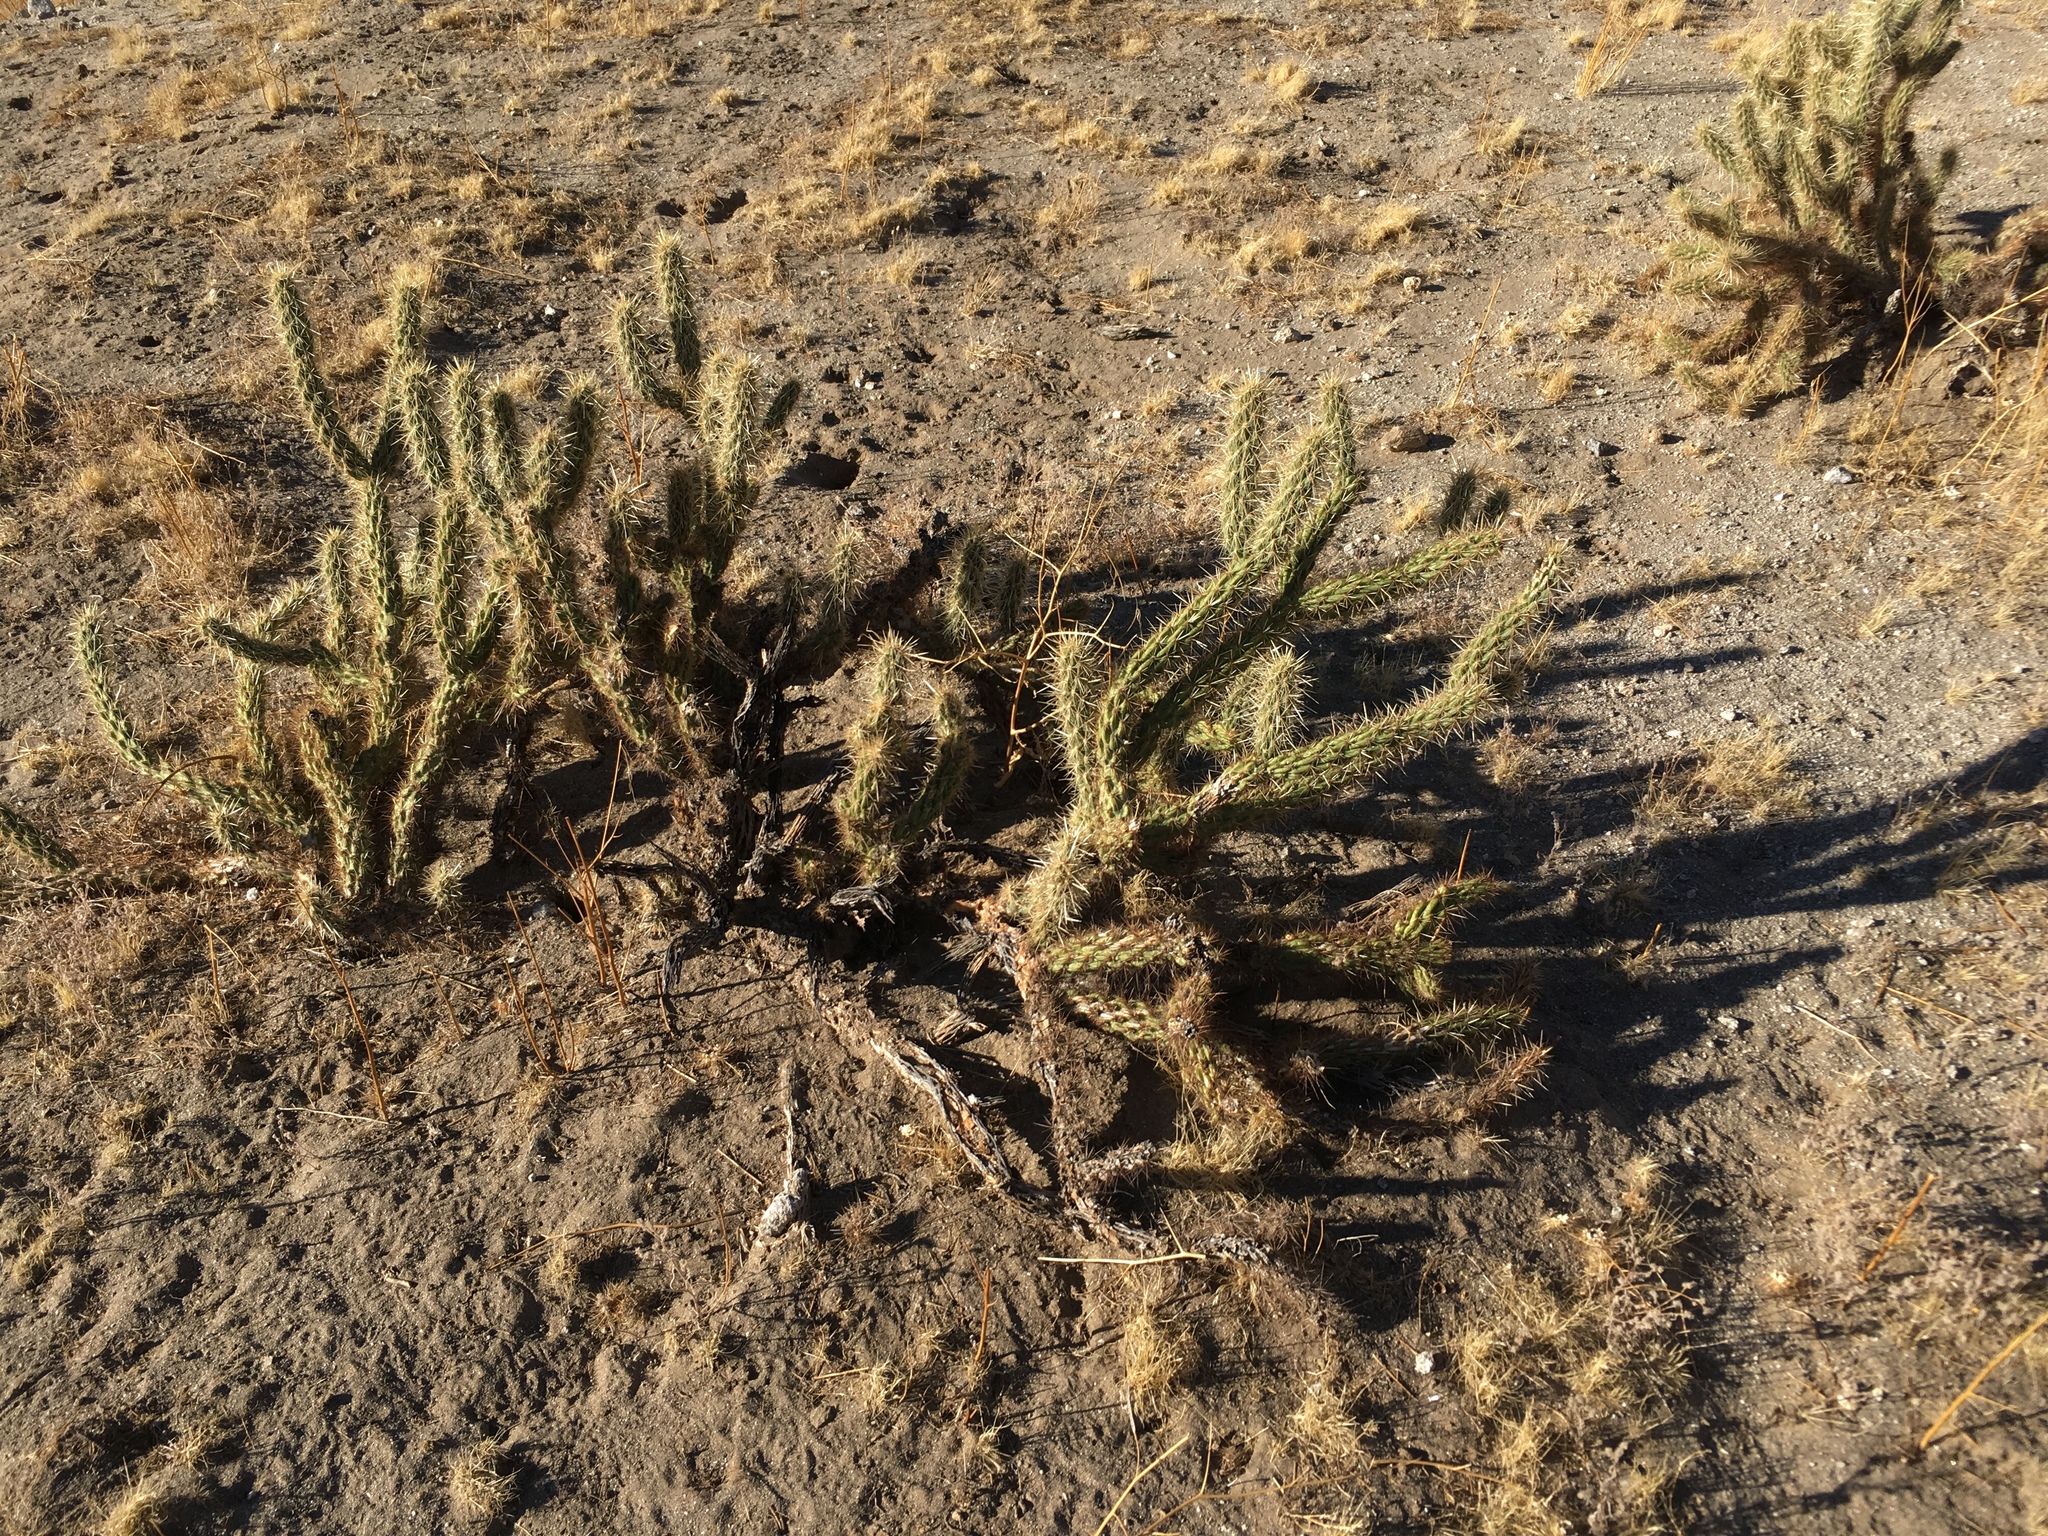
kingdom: Plantae
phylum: Tracheophyta
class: Magnoliopsida
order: Caryophyllales
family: Cactaceae
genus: Cylindropuntia
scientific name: Cylindropuntia ganderi
